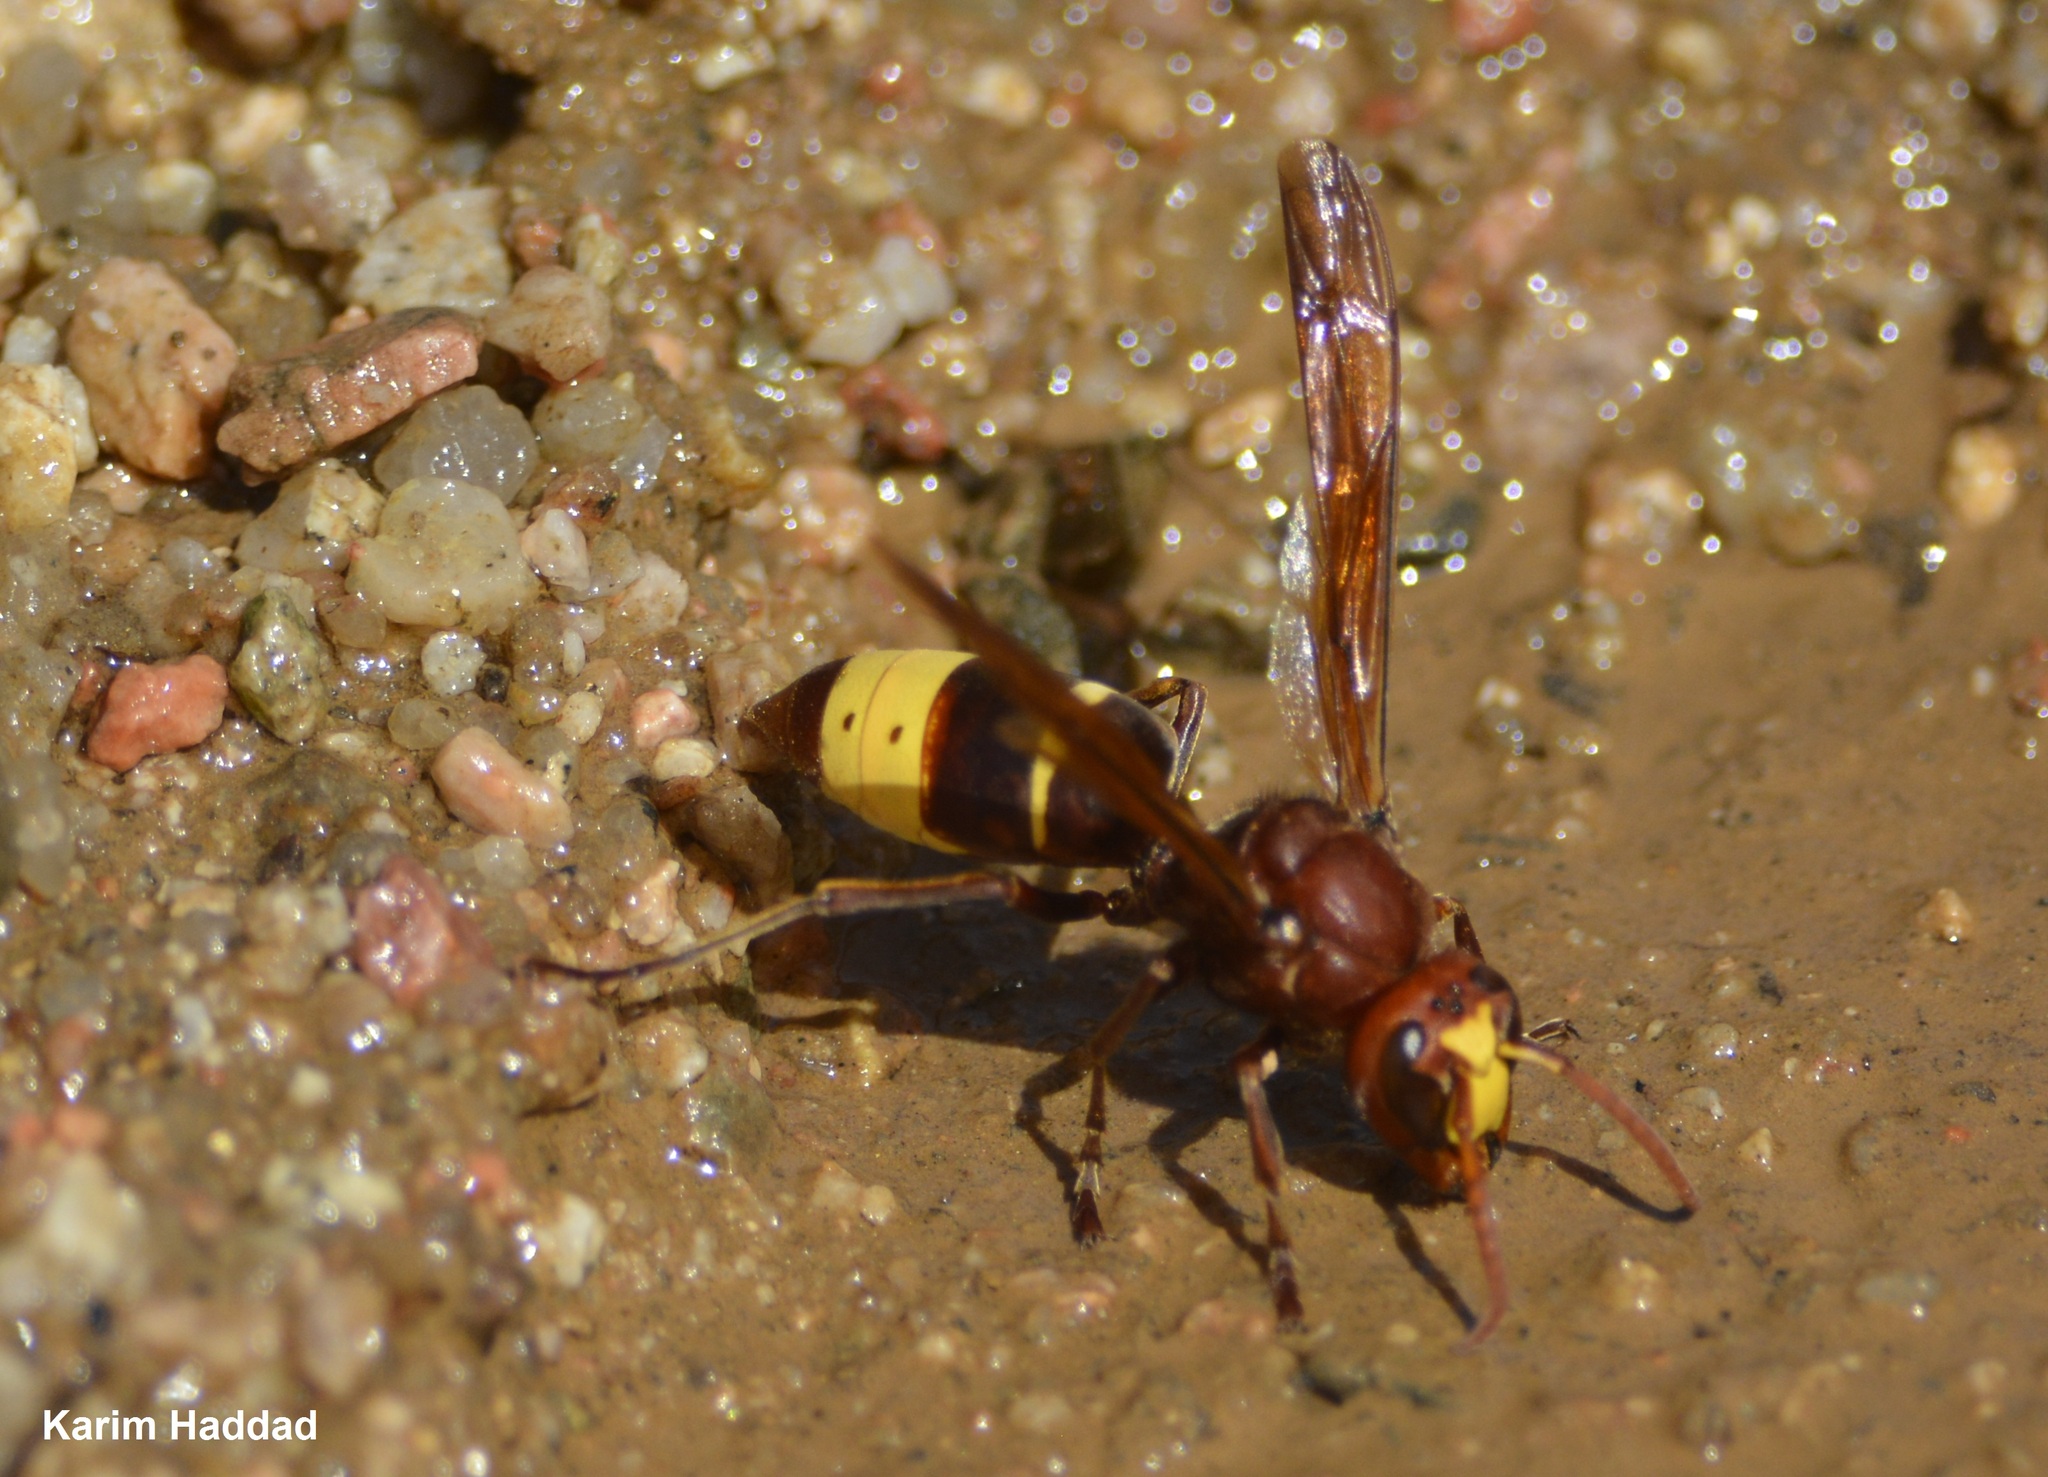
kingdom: Animalia
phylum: Arthropoda
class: Insecta
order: Hymenoptera
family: Vespidae
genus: Vespa
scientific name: Vespa orientalis
